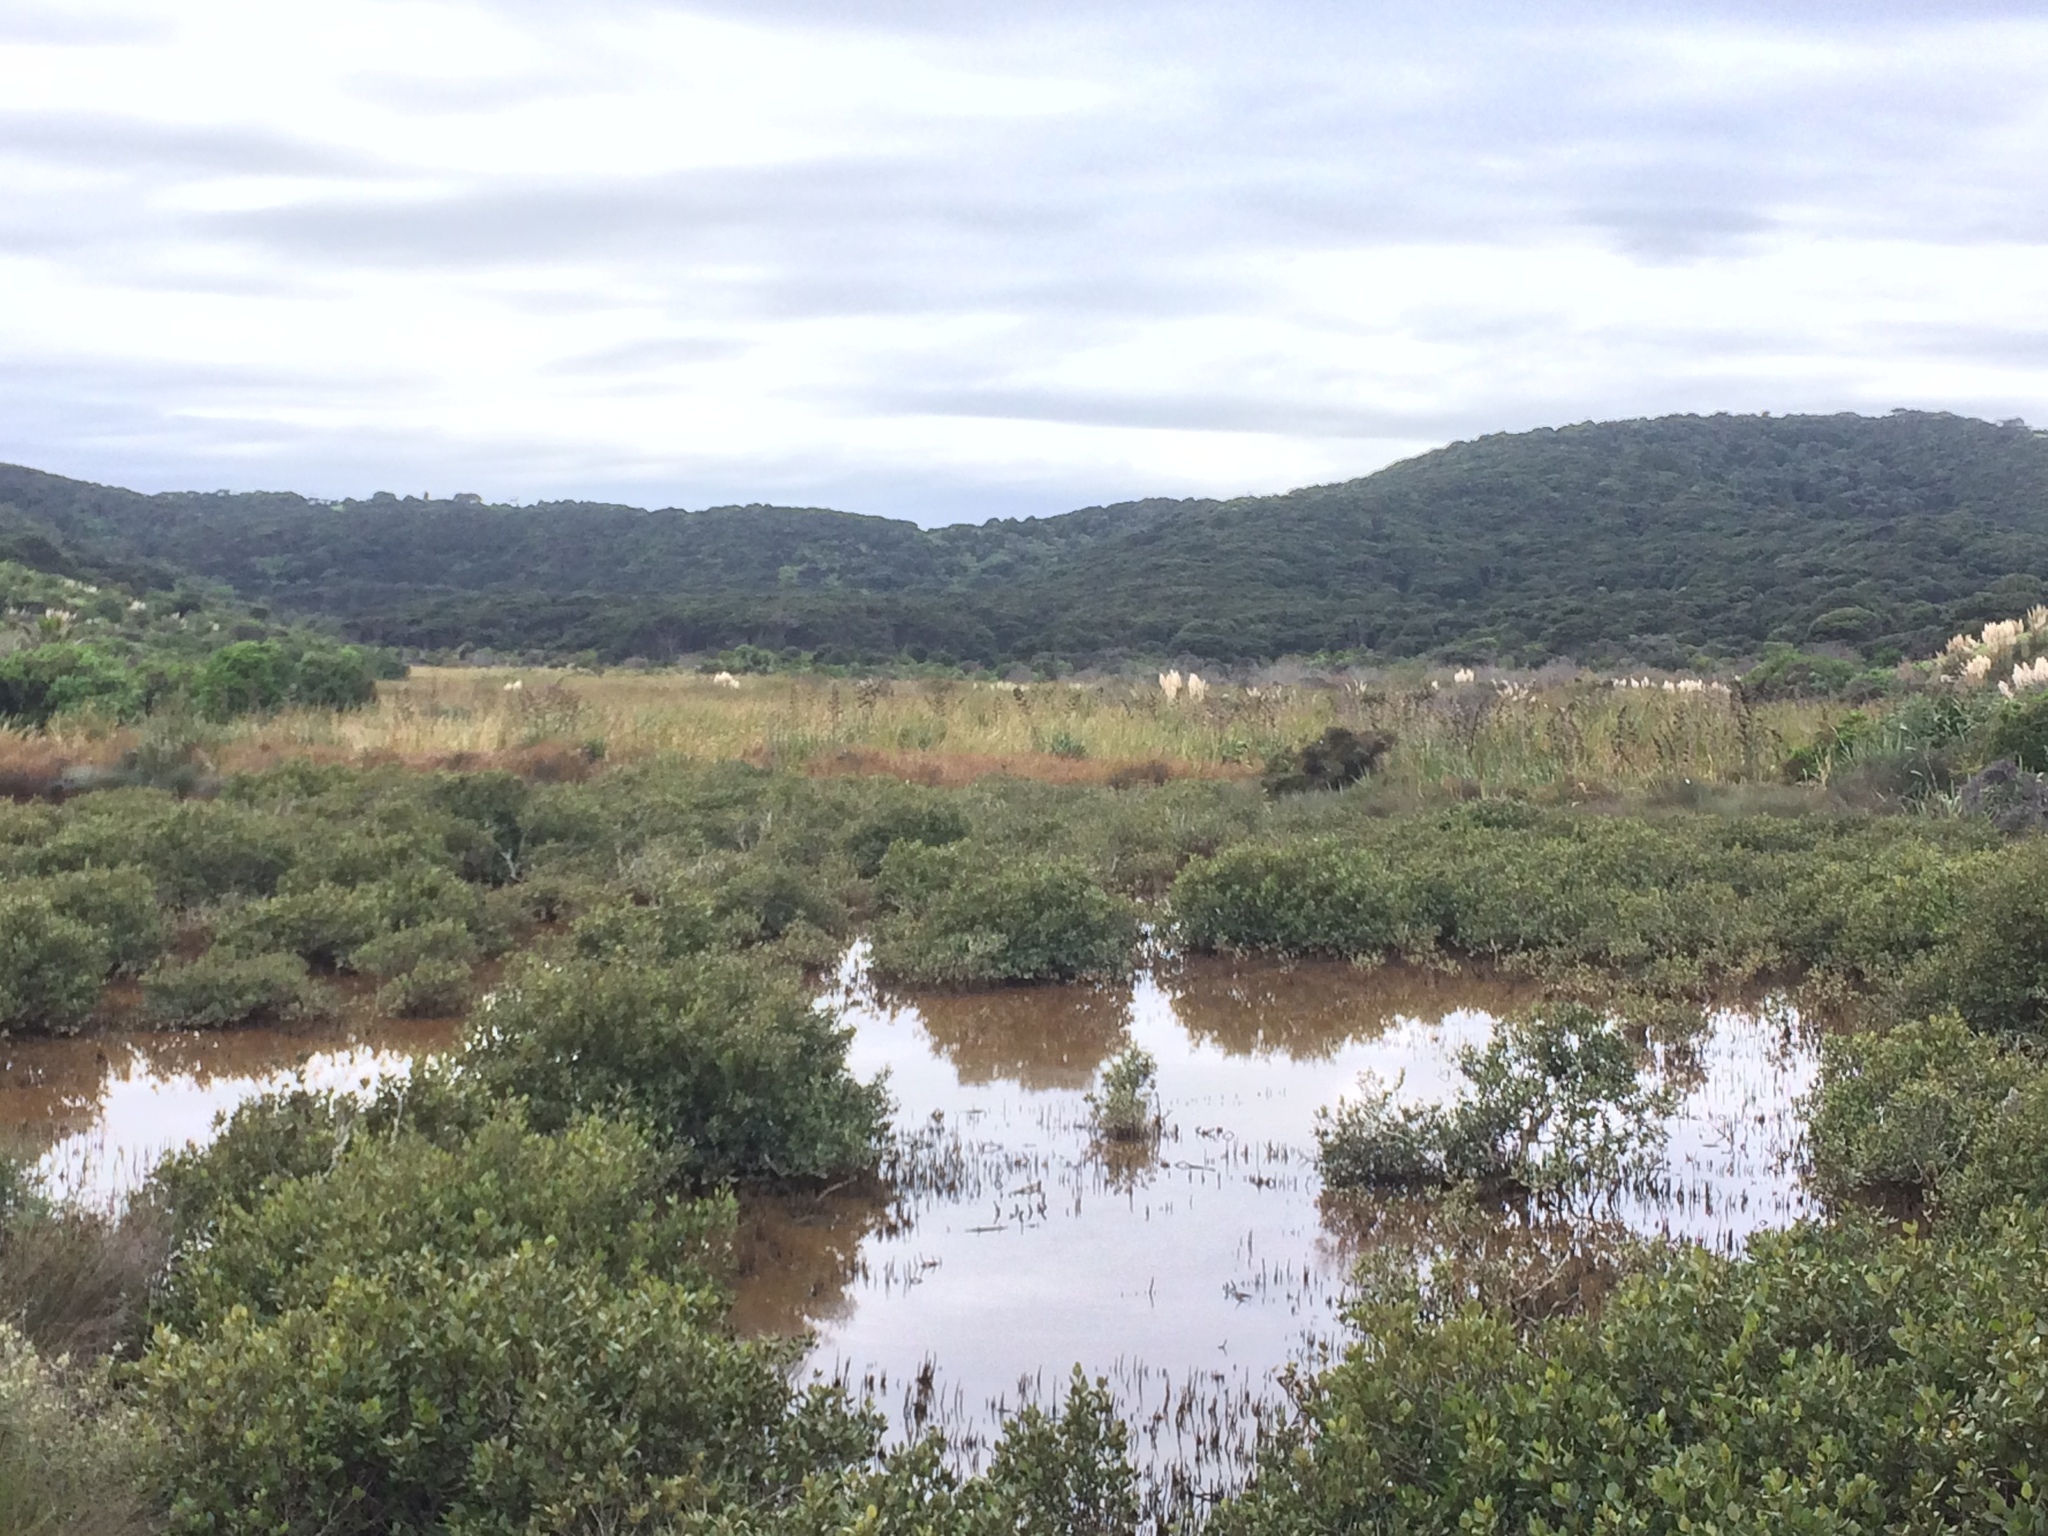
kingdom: Plantae
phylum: Tracheophyta
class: Magnoliopsida
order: Lamiales
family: Acanthaceae
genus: Avicennia
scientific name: Avicennia marina
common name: Gray mangrove
